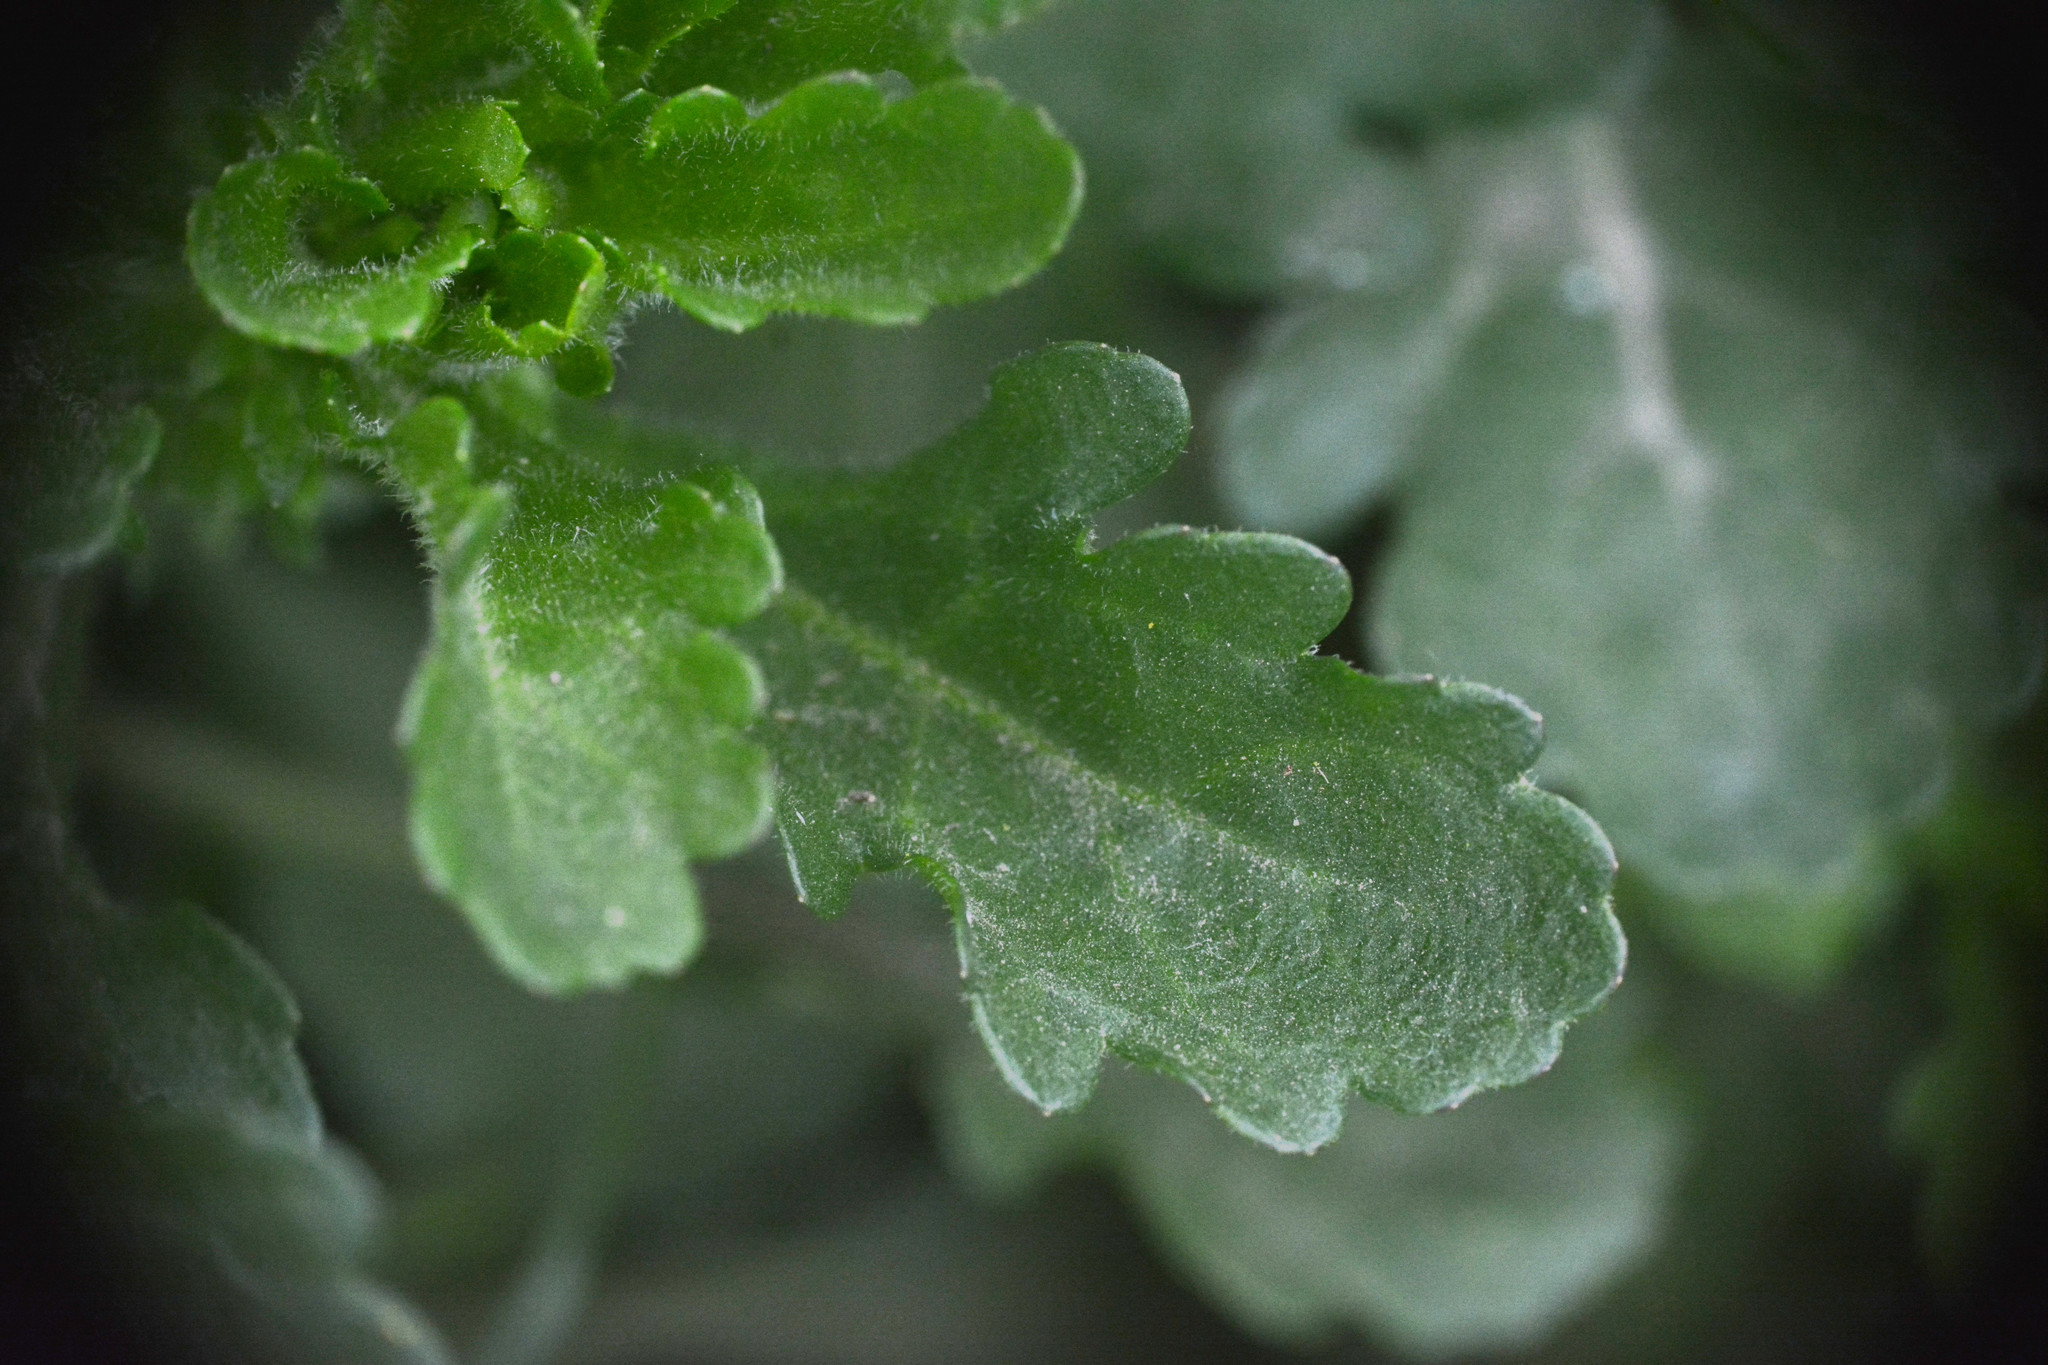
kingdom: Plantae
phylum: Tracheophyta
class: Magnoliopsida
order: Asterales
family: Asteraceae
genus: Leucanthemum
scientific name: Leucanthemum vulgare
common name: Oxeye daisy
